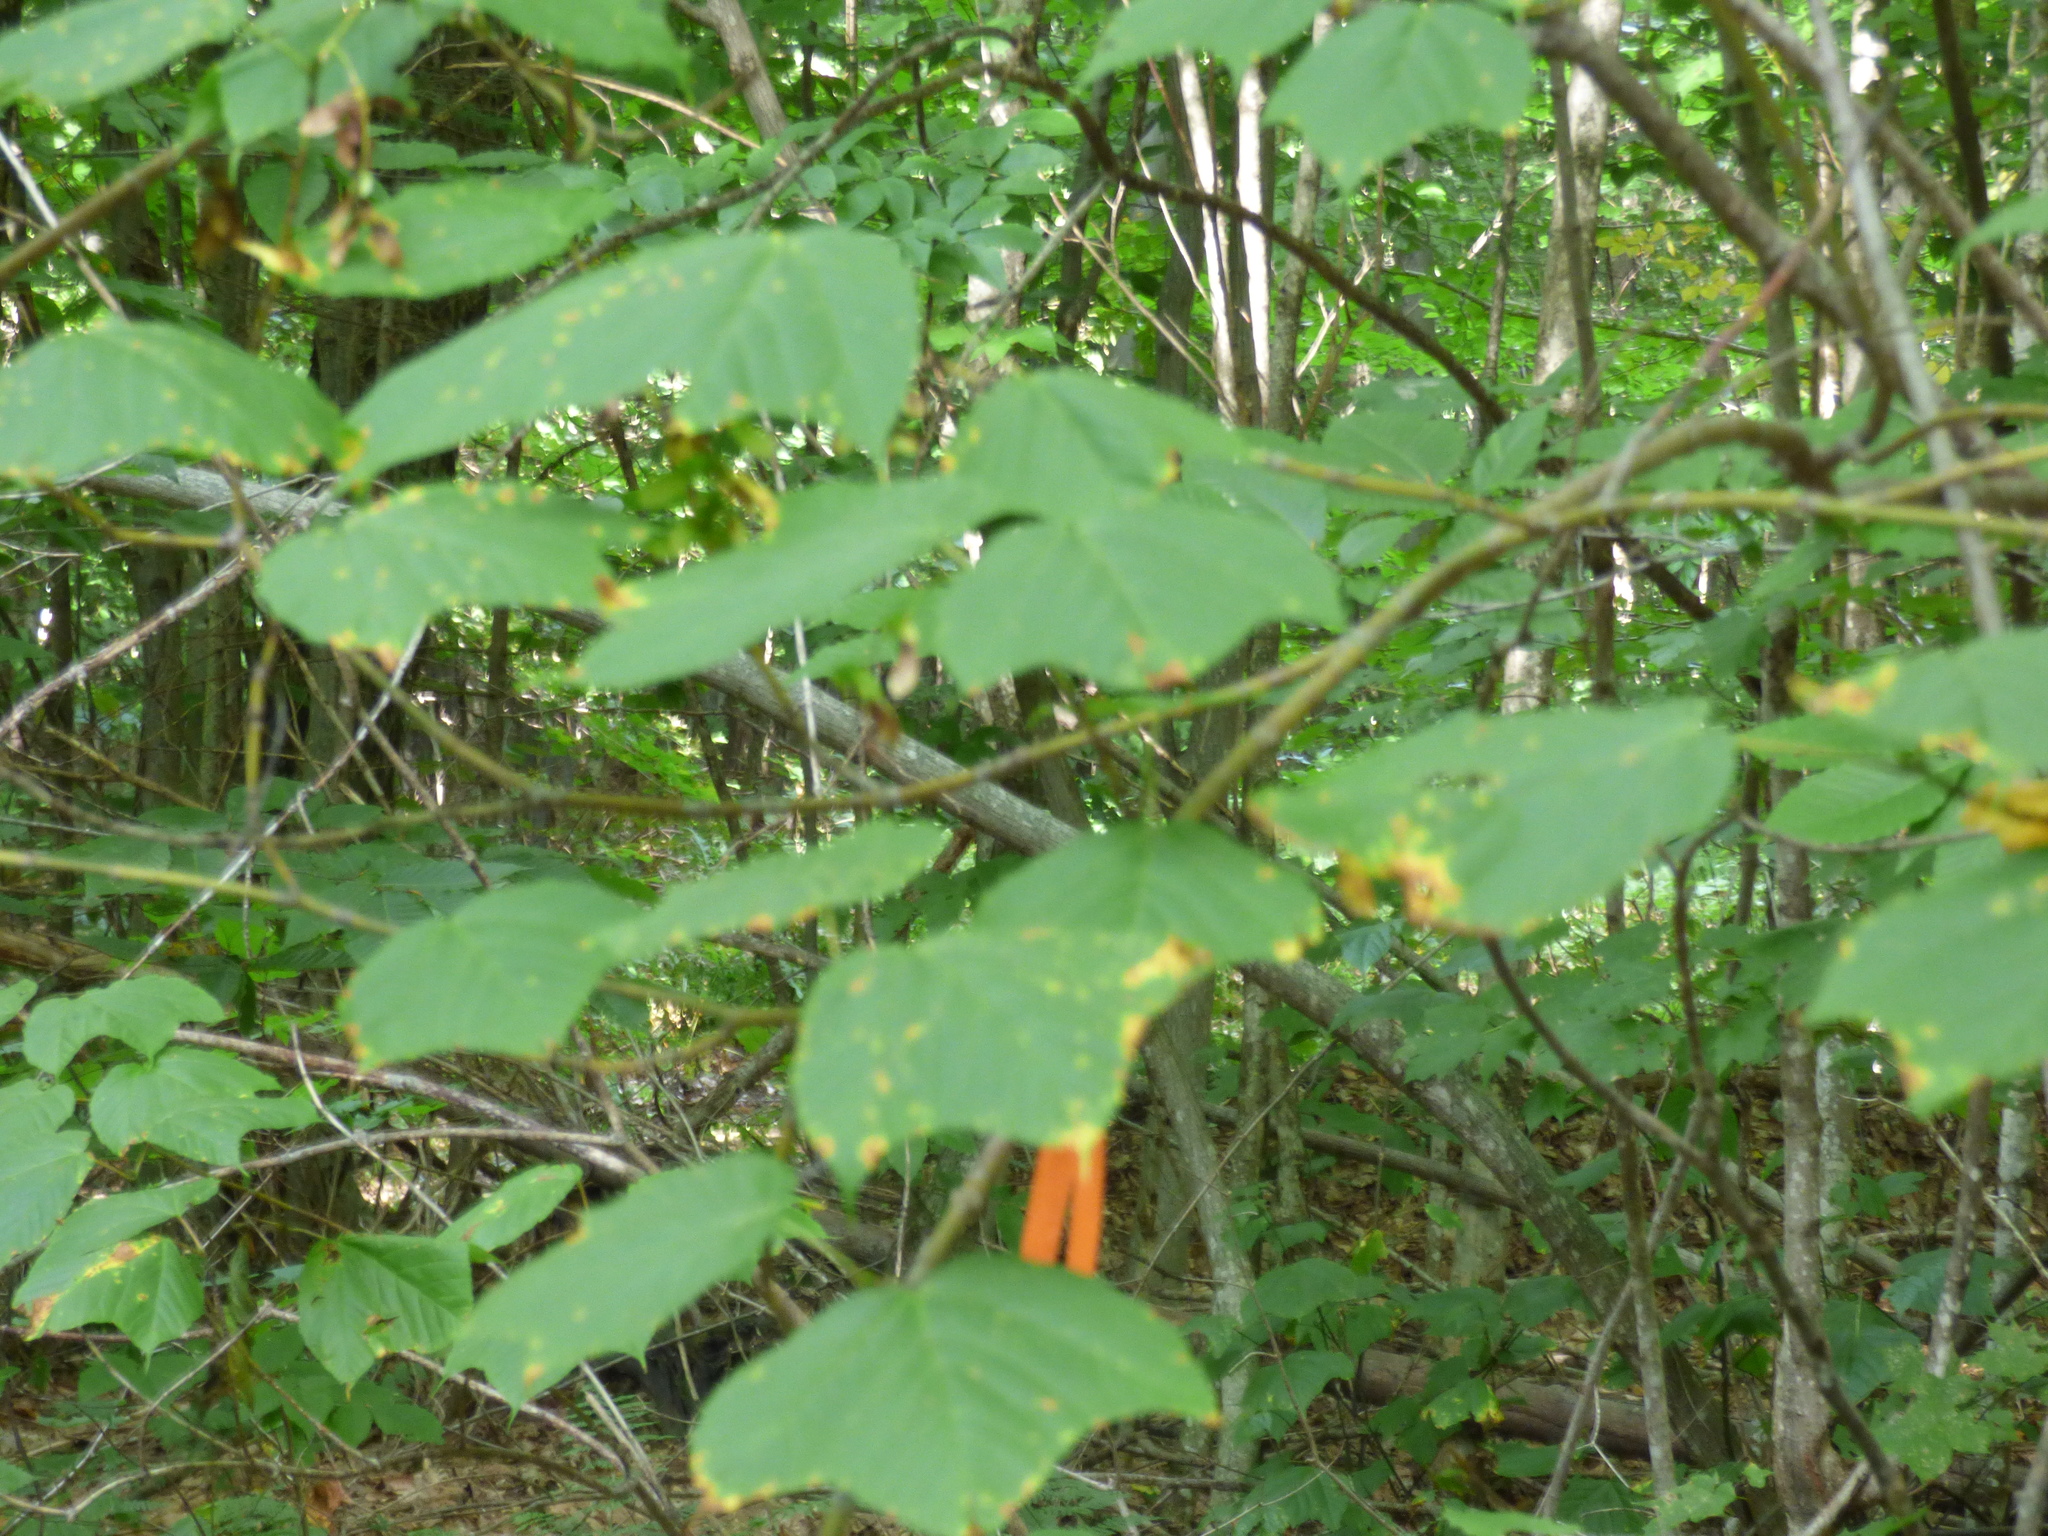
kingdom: Plantae
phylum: Tracheophyta
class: Magnoliopsida
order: Sapindales
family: Sapindaceae
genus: Acer
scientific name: Acer pensylvanicum
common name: Moosewood
